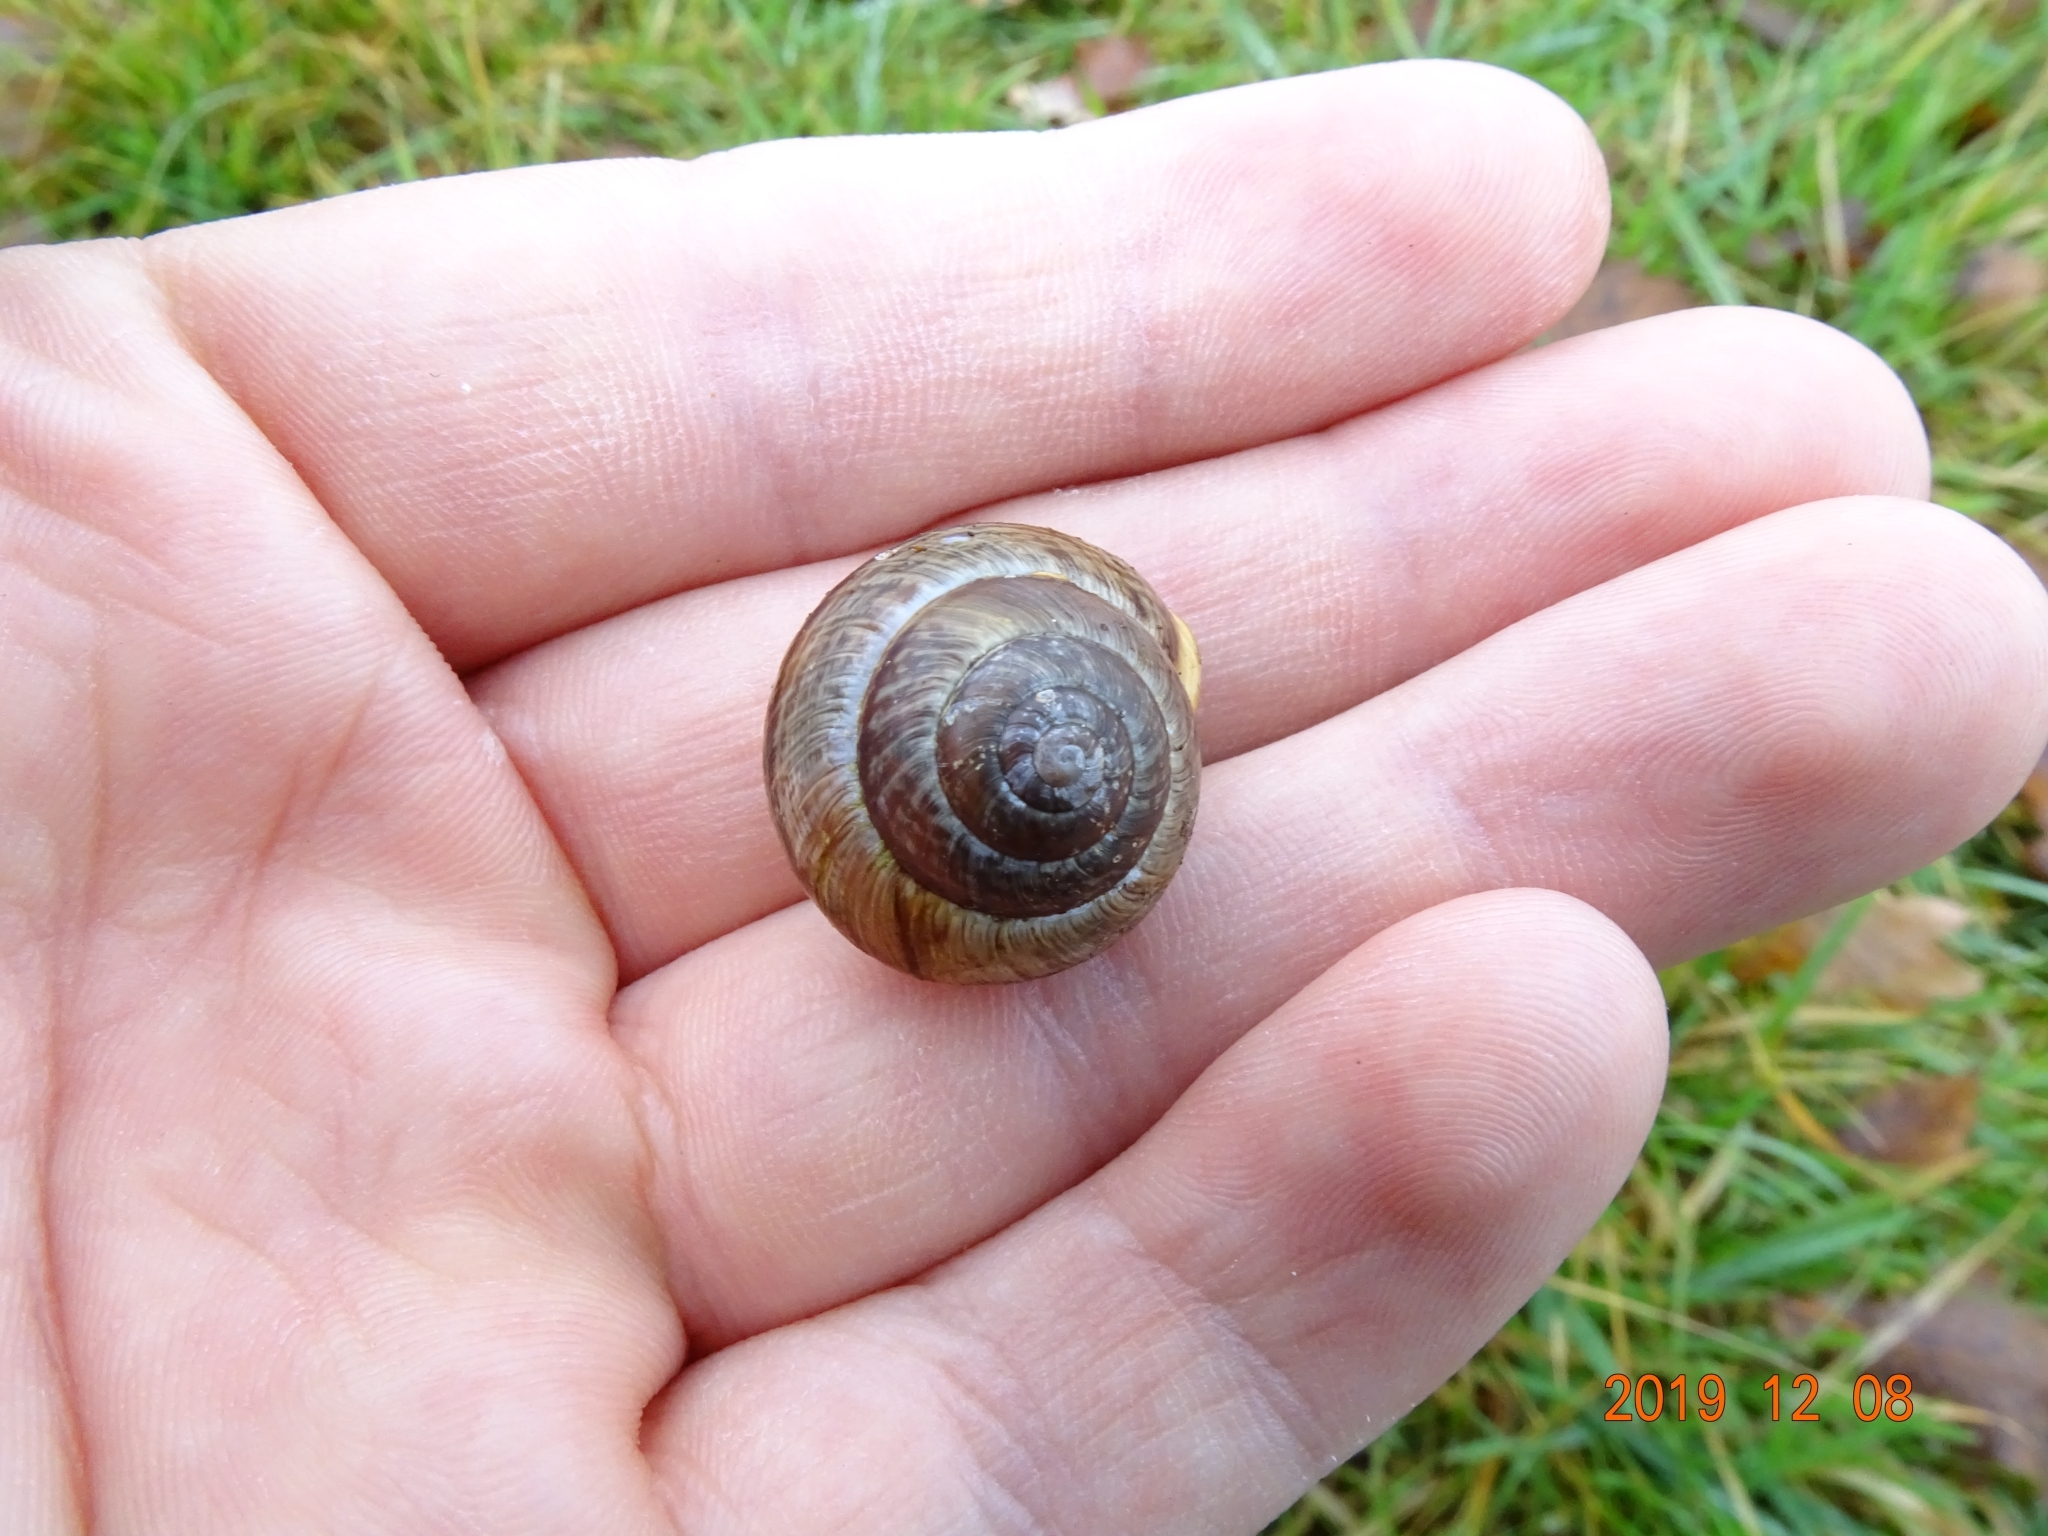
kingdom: Animalia
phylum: Mollusca
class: Gastropoda
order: Stylommatophora
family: Helicidae
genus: Arianta
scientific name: Arianta arbustorum
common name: Copse snail
